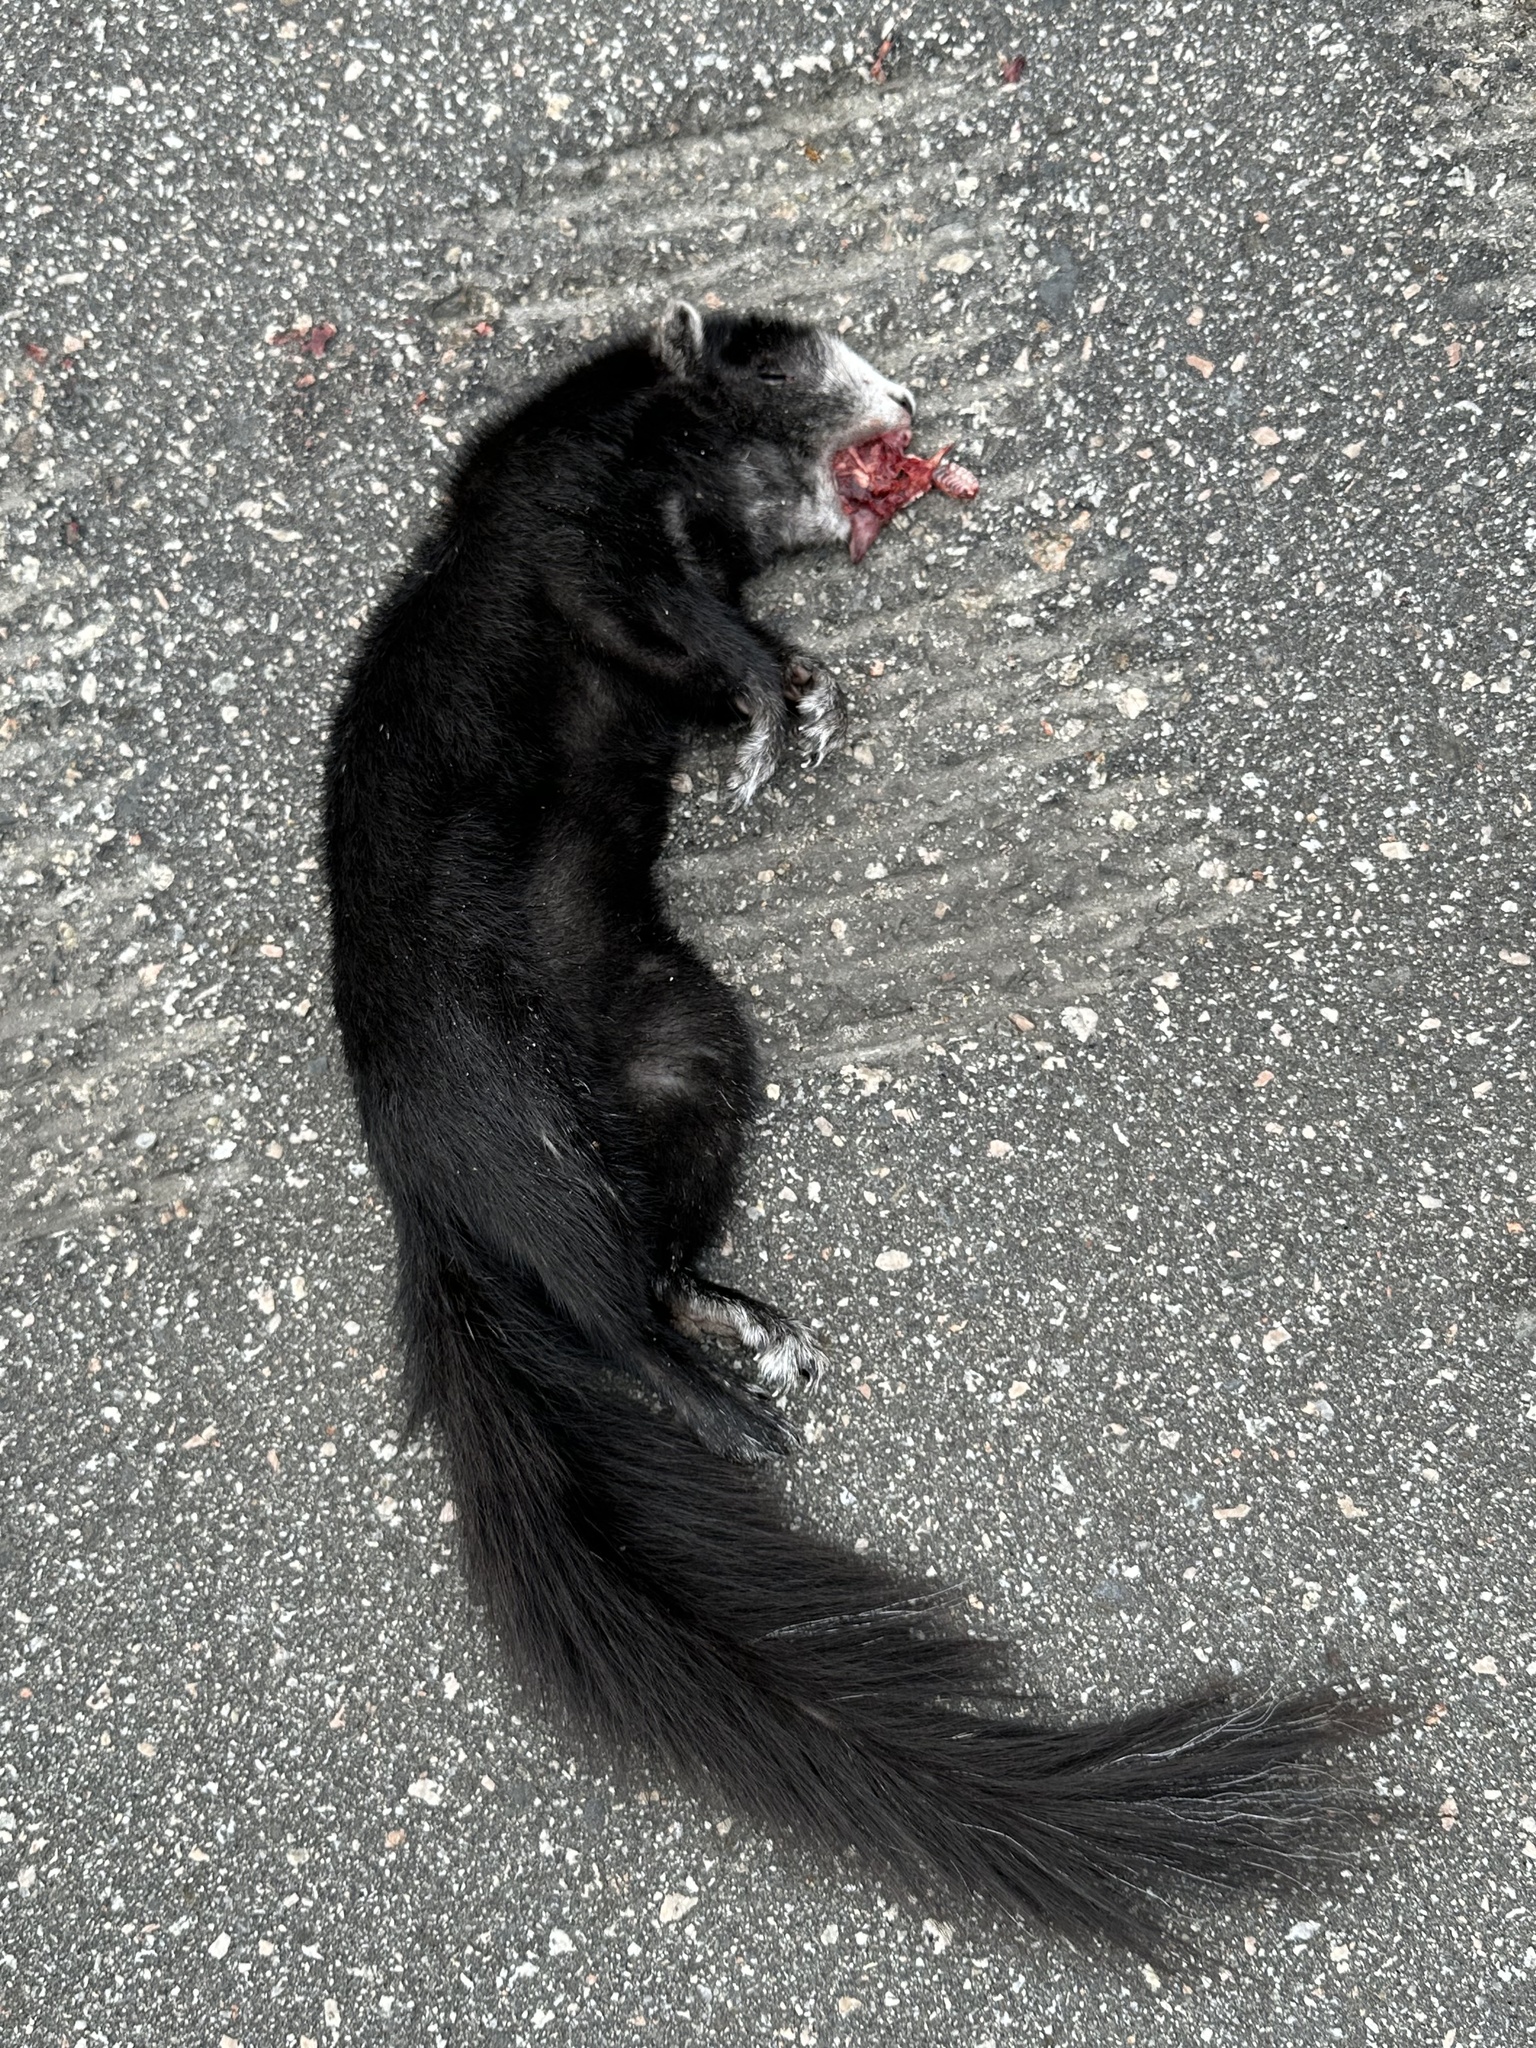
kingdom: Animalia
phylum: Chordata
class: Mammalia
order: Rodentia
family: Sciuridae
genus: Sciurus
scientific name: Sciurus niger
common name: Fox squirrel
